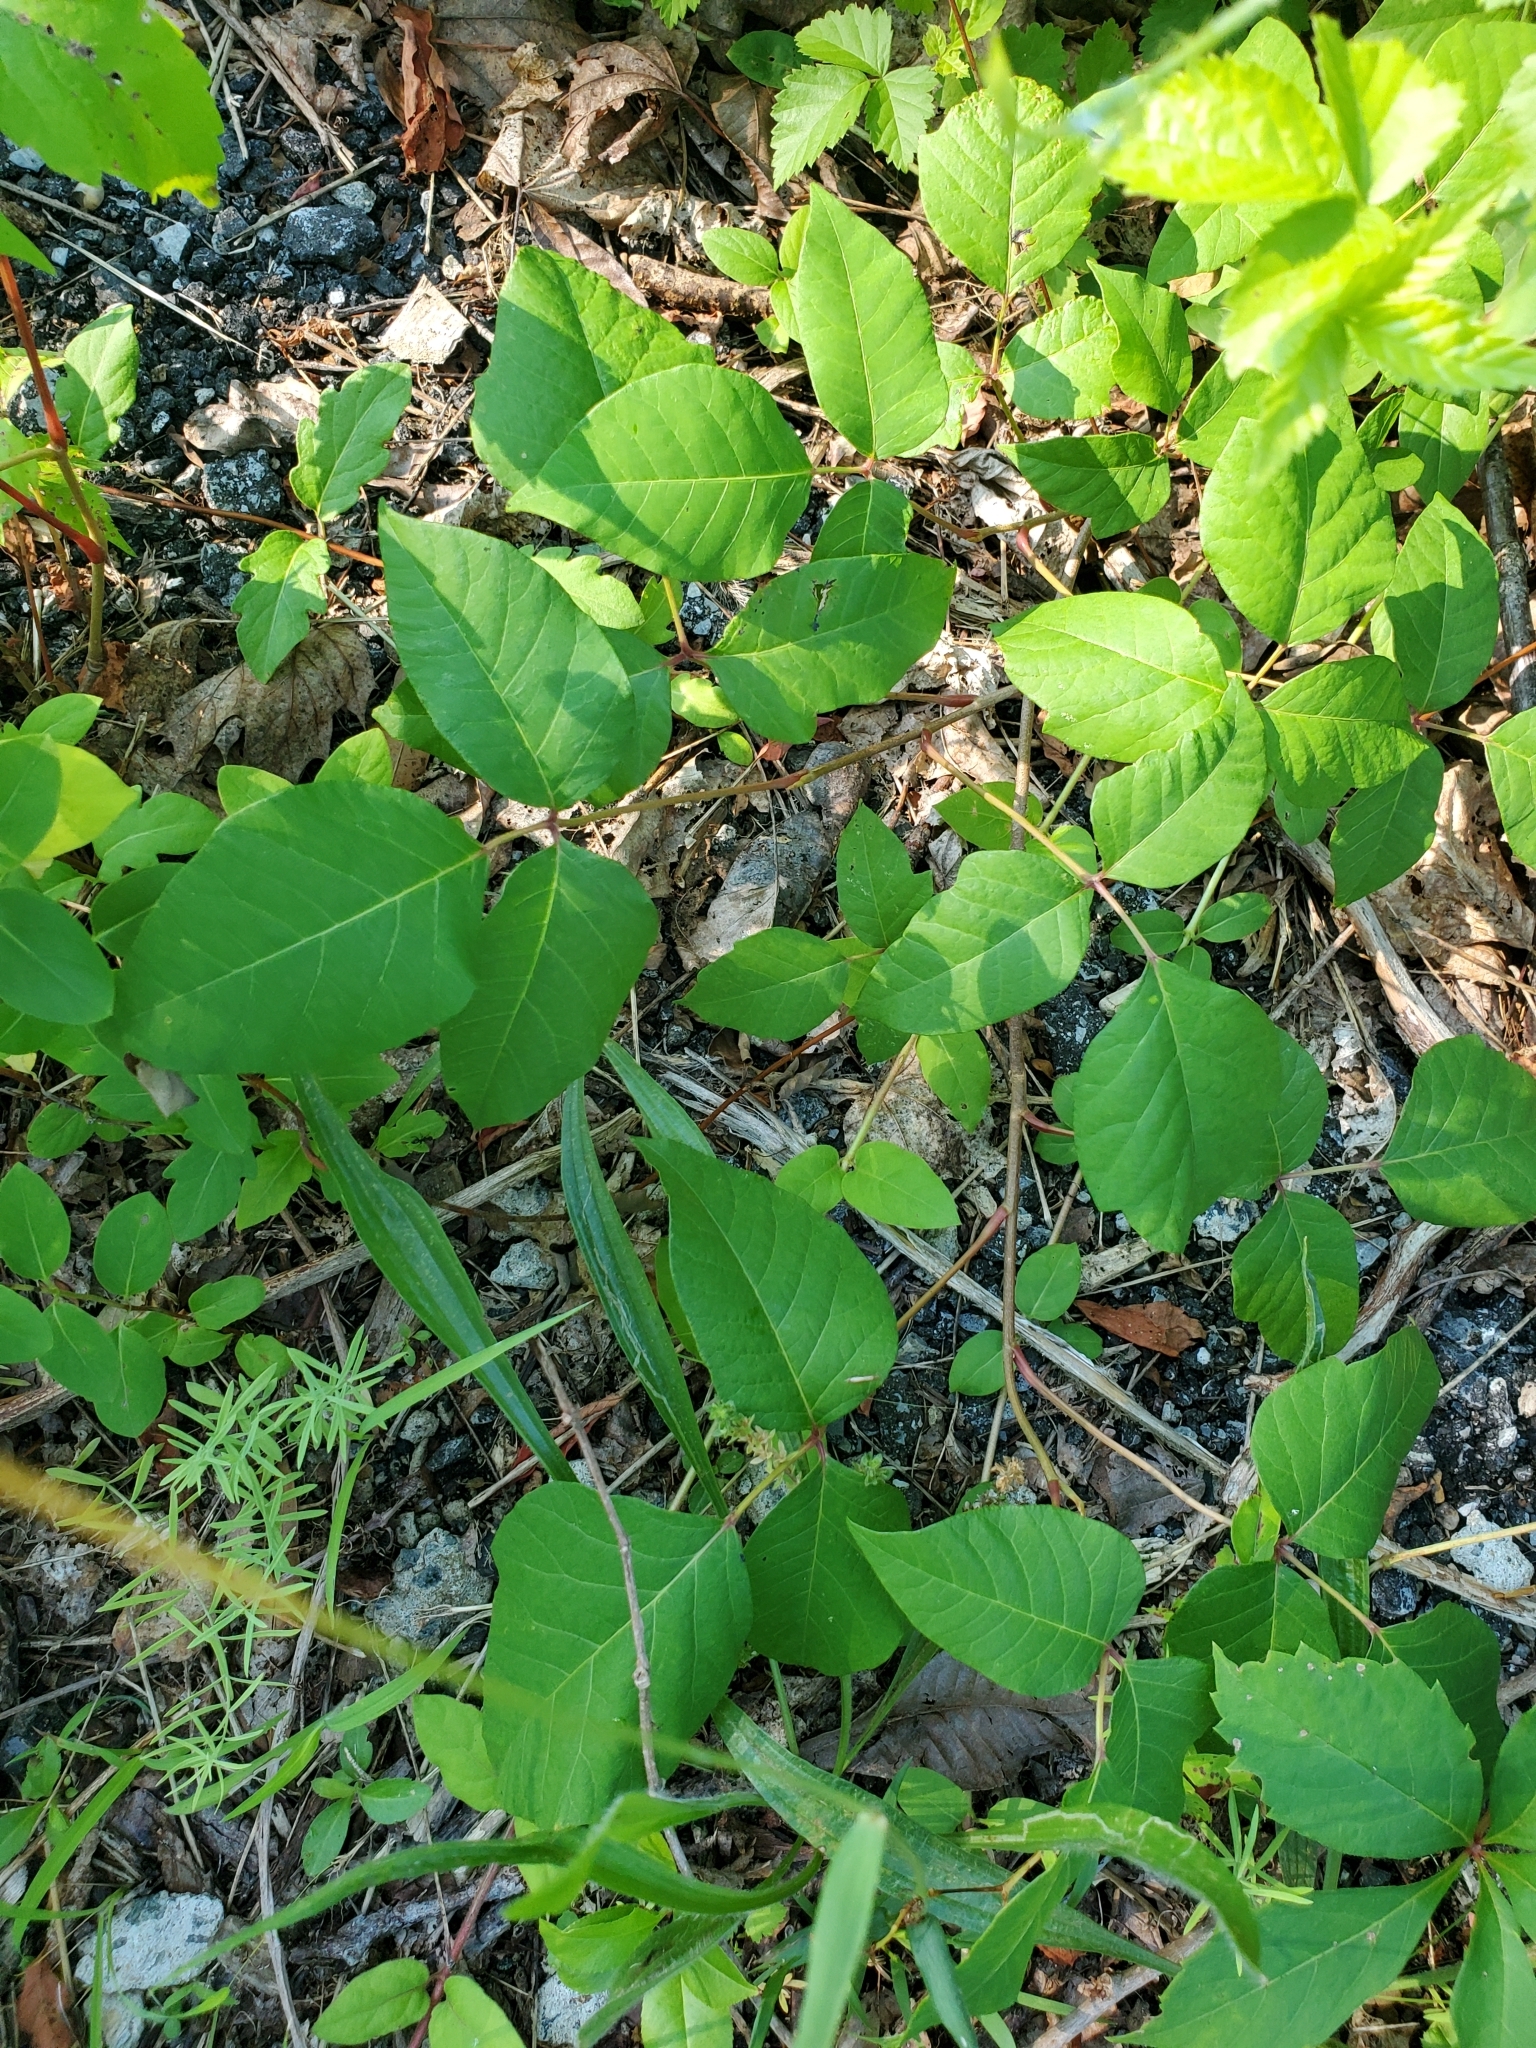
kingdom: Plantae
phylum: Tracheophyta
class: Magnoliopsida
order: Sapindales
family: Anacardiaceae
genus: Toxicodendron
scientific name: Toxicodendron radicans
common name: Poison ivy
